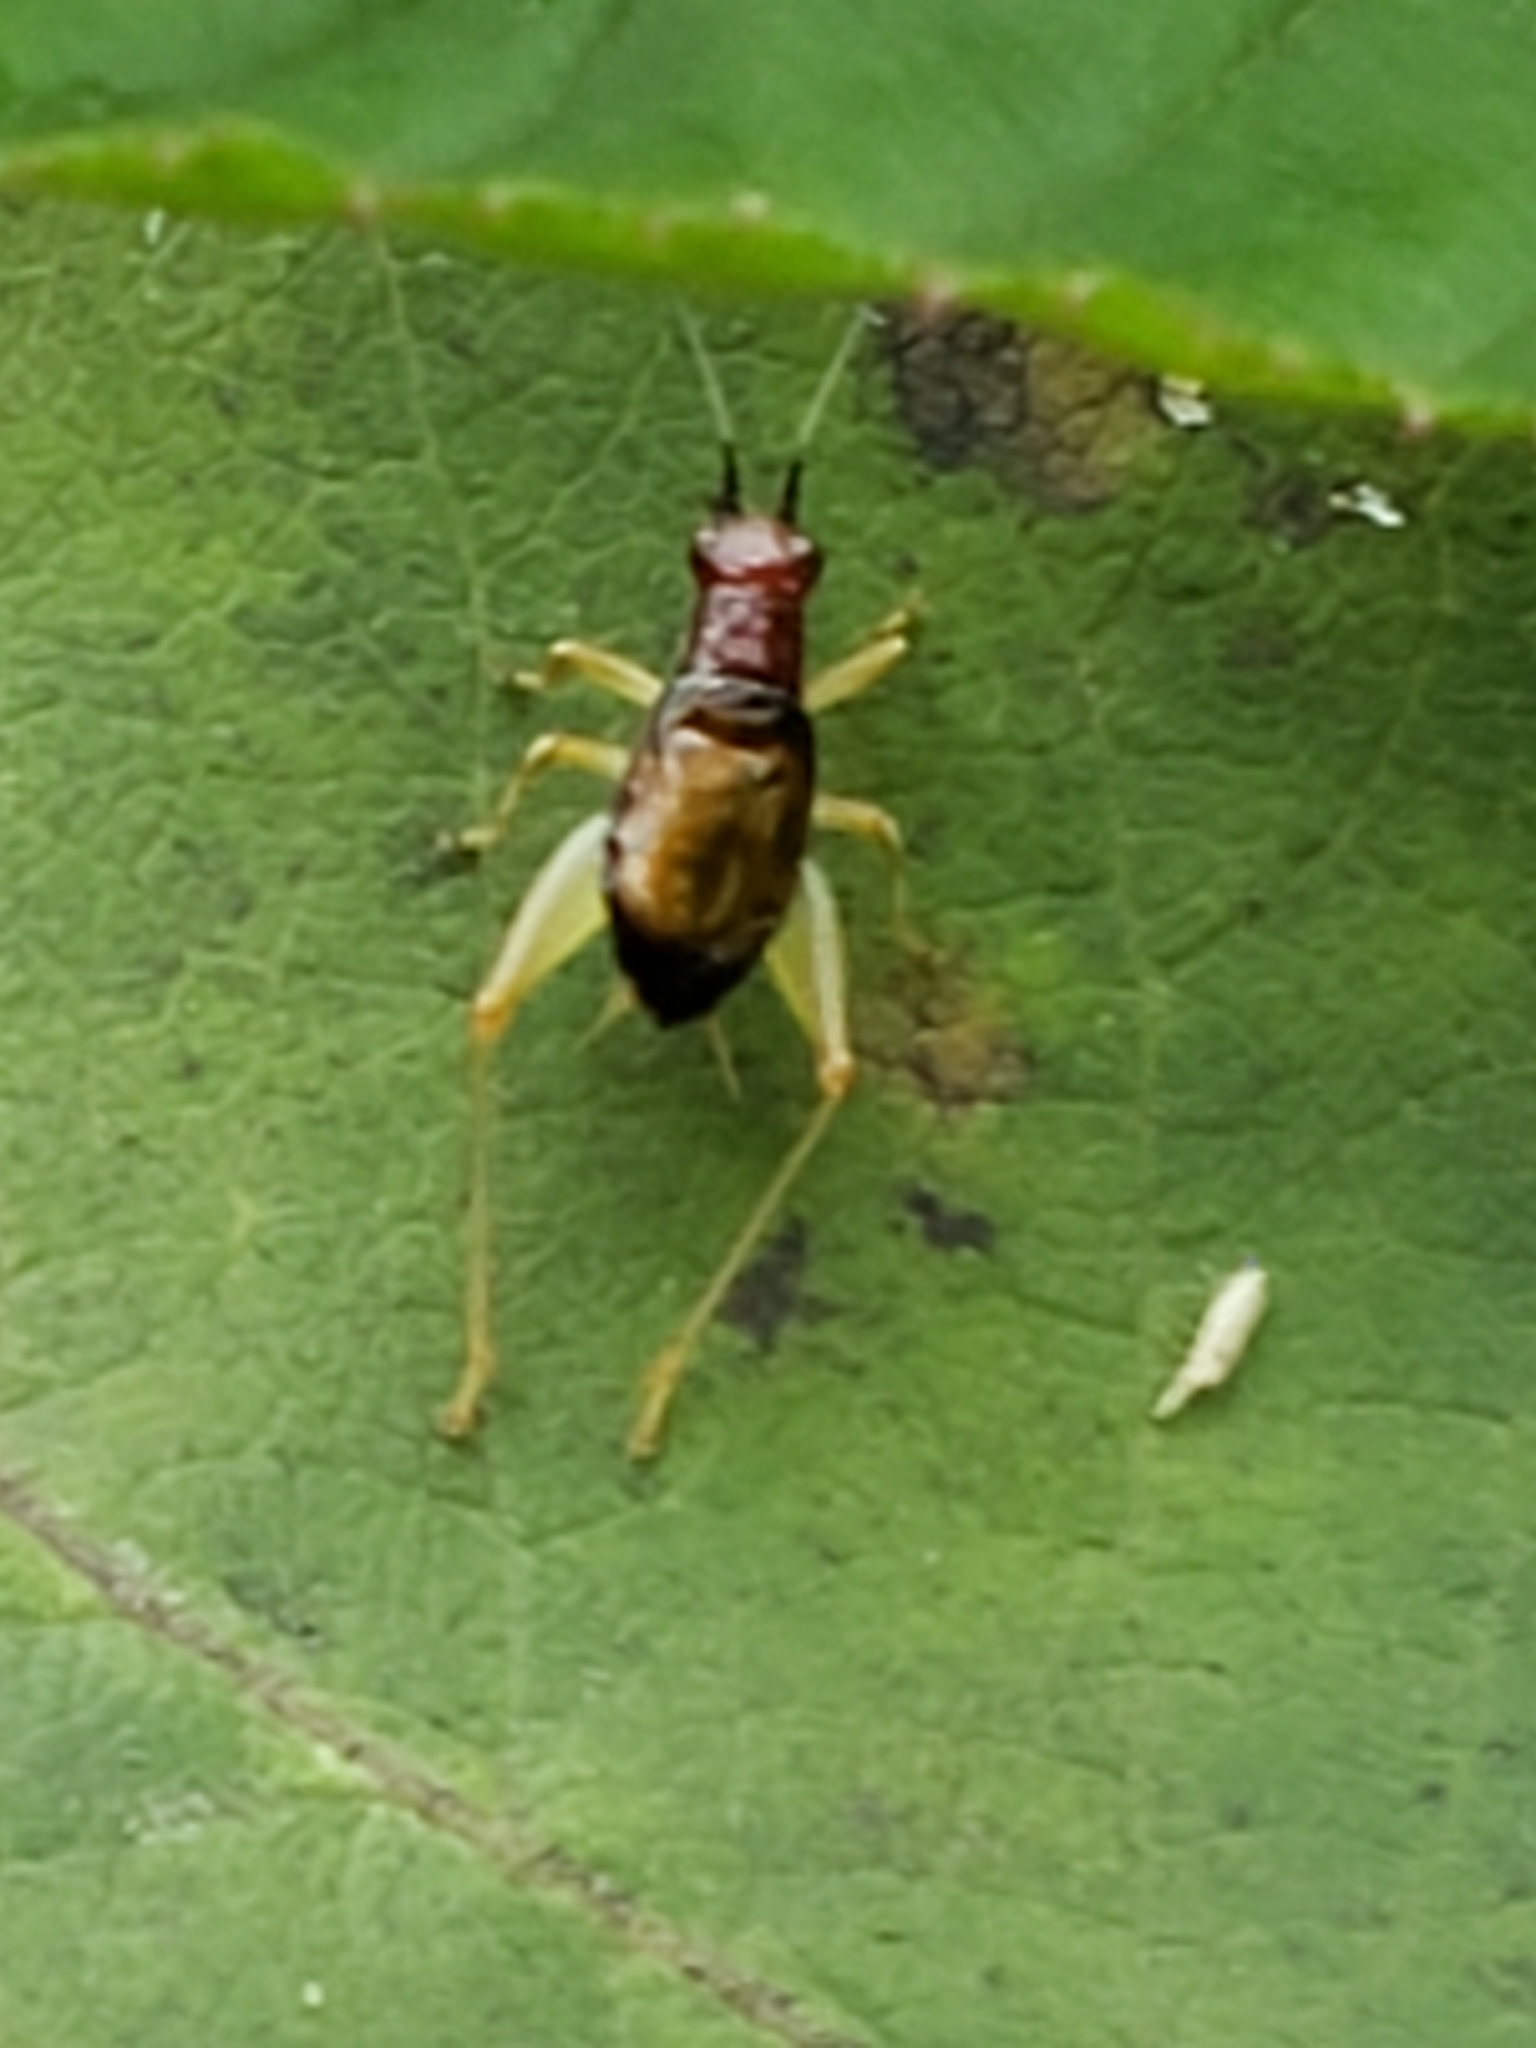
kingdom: Animalia
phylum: Arthropoda
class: Insecta
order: Orthoptera
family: Trigonidiidae
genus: Phyllopalpus
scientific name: Phyllopalpus pulchellus
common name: Handsome trig
